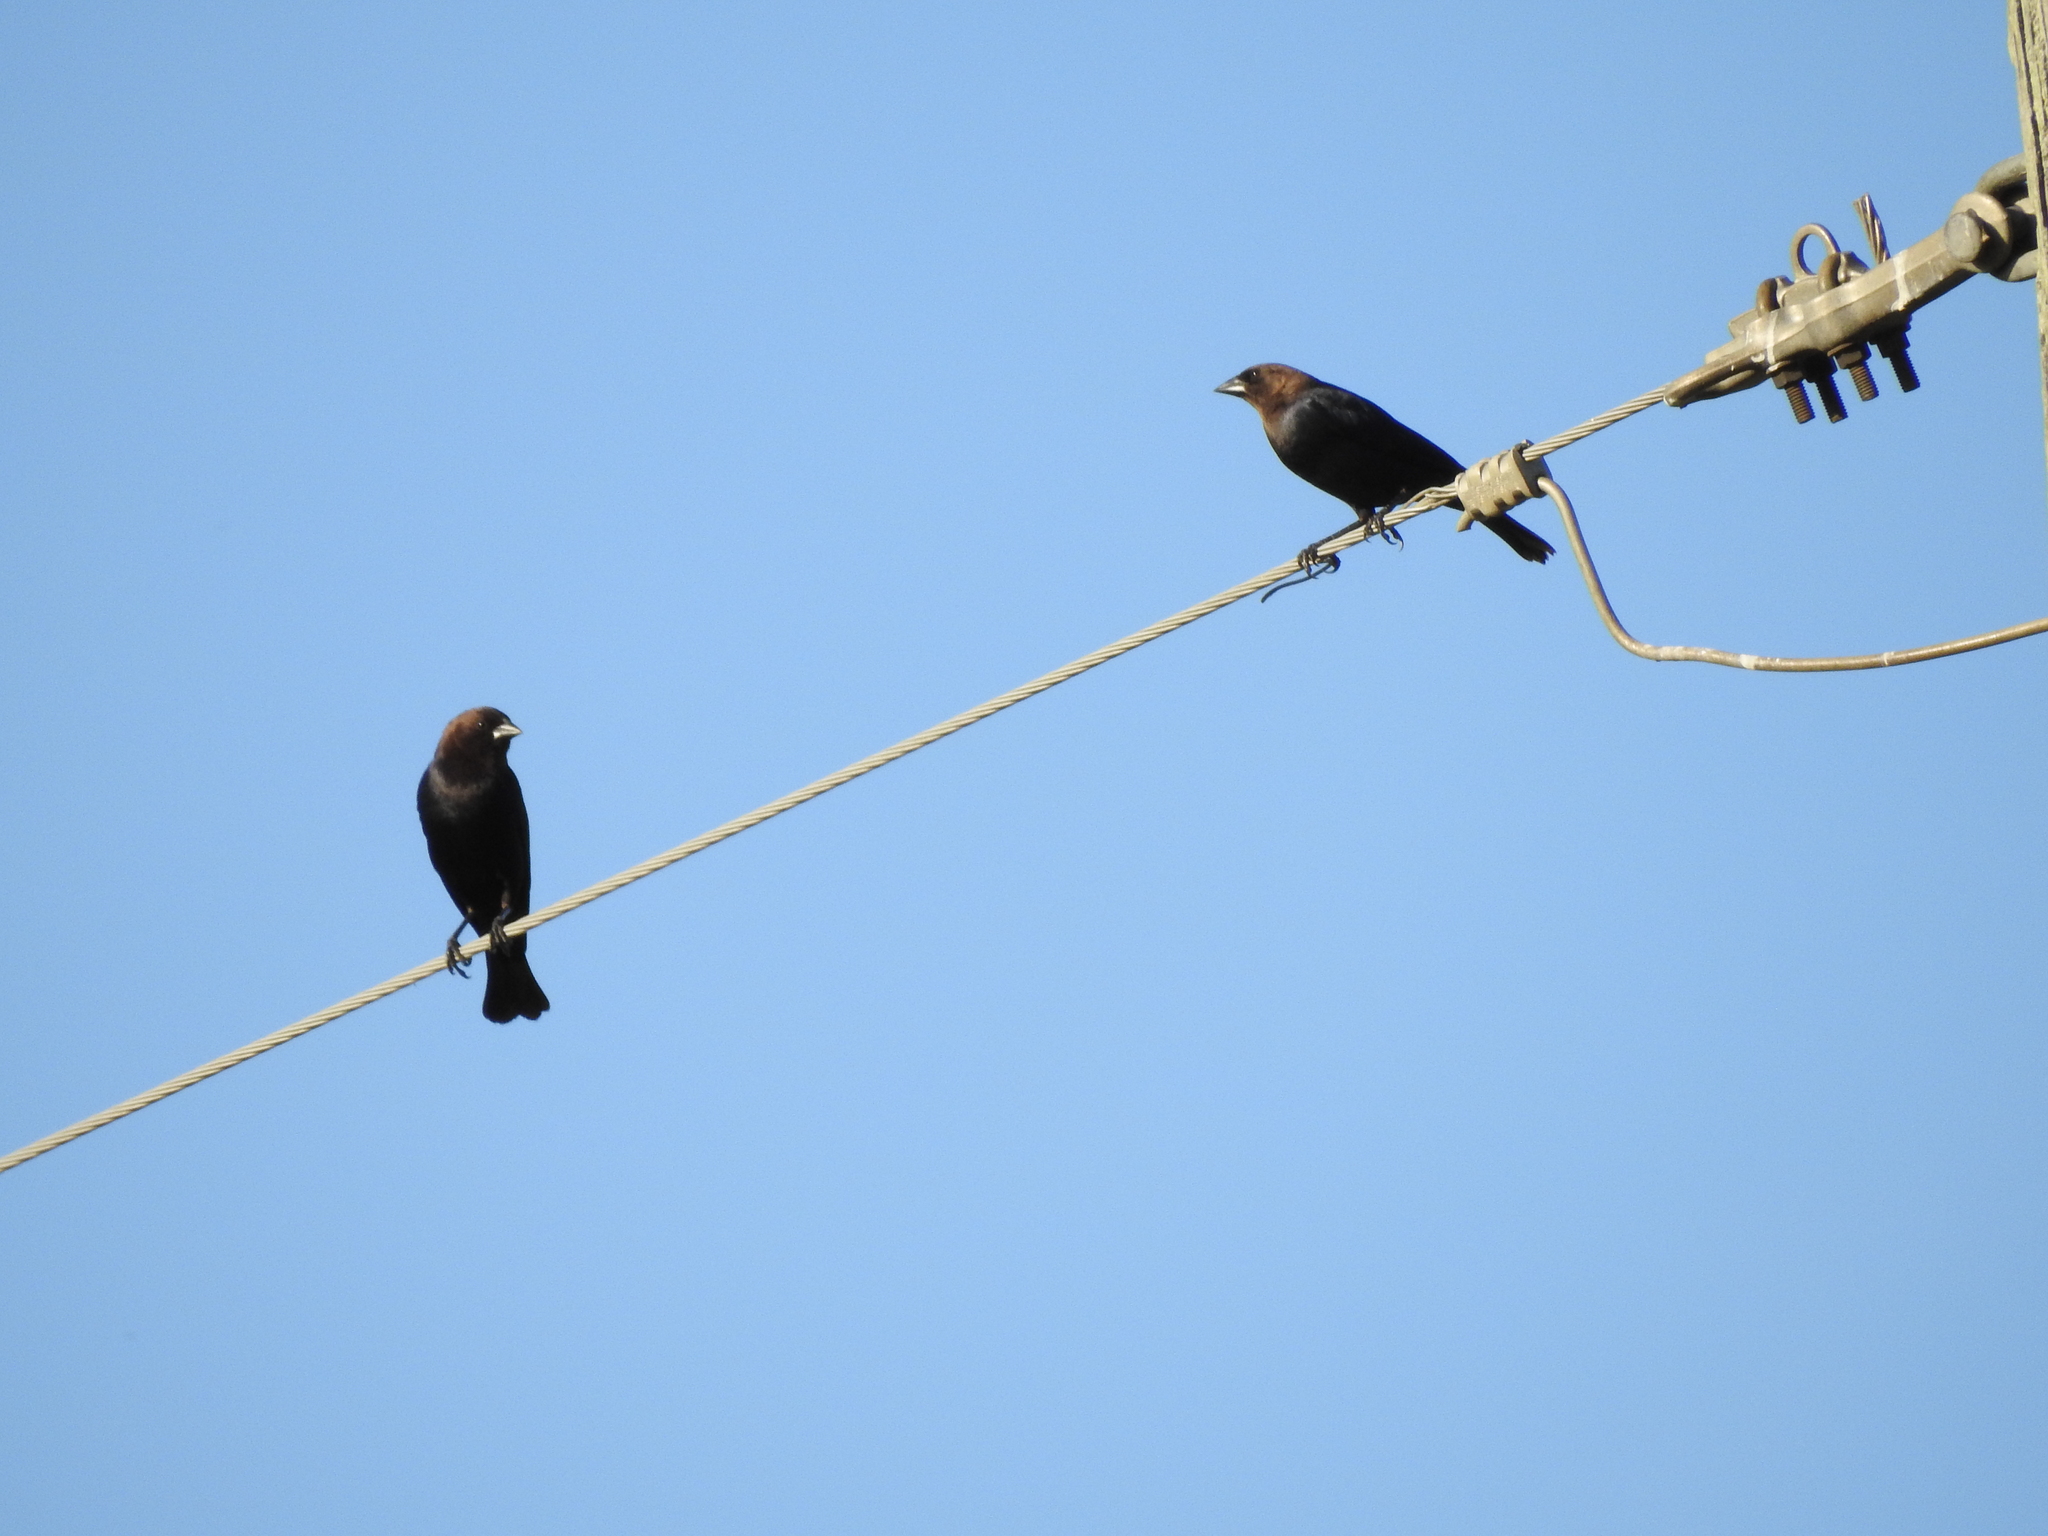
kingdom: Animalia
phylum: Chordata
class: Aves
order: Passeriformes
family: Icteridae
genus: Molothrus
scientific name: Molothrus ater
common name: Brown-headed cowbird
